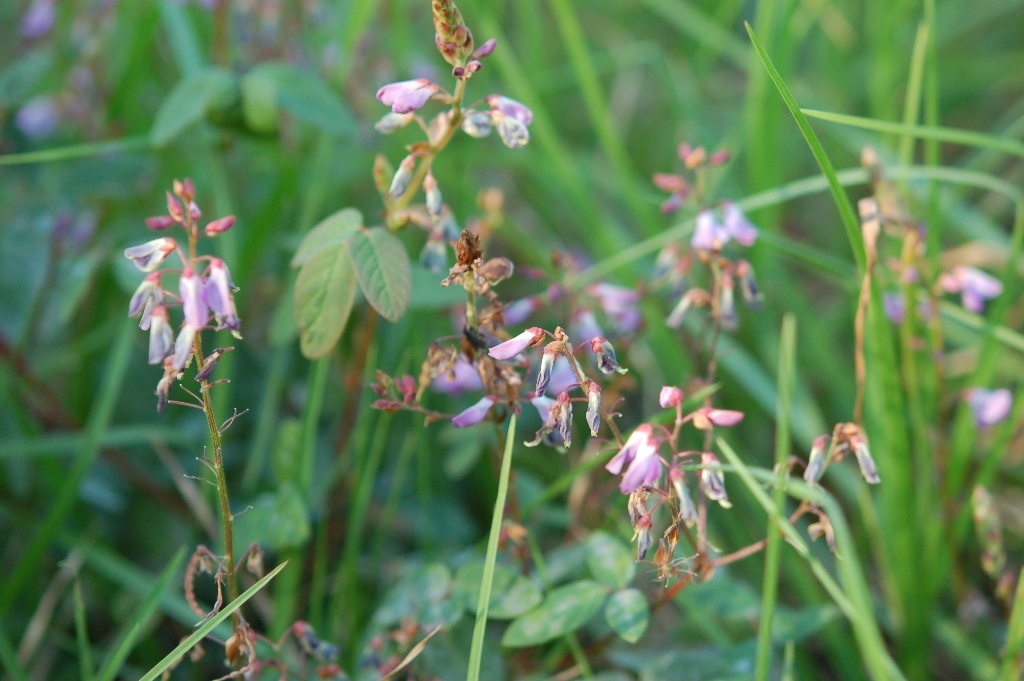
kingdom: Plantae
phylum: Tracheophyta
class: Magnoliopsida
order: Fabales
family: Fabaceae
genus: Desmodium
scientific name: Desmodium pringlei
